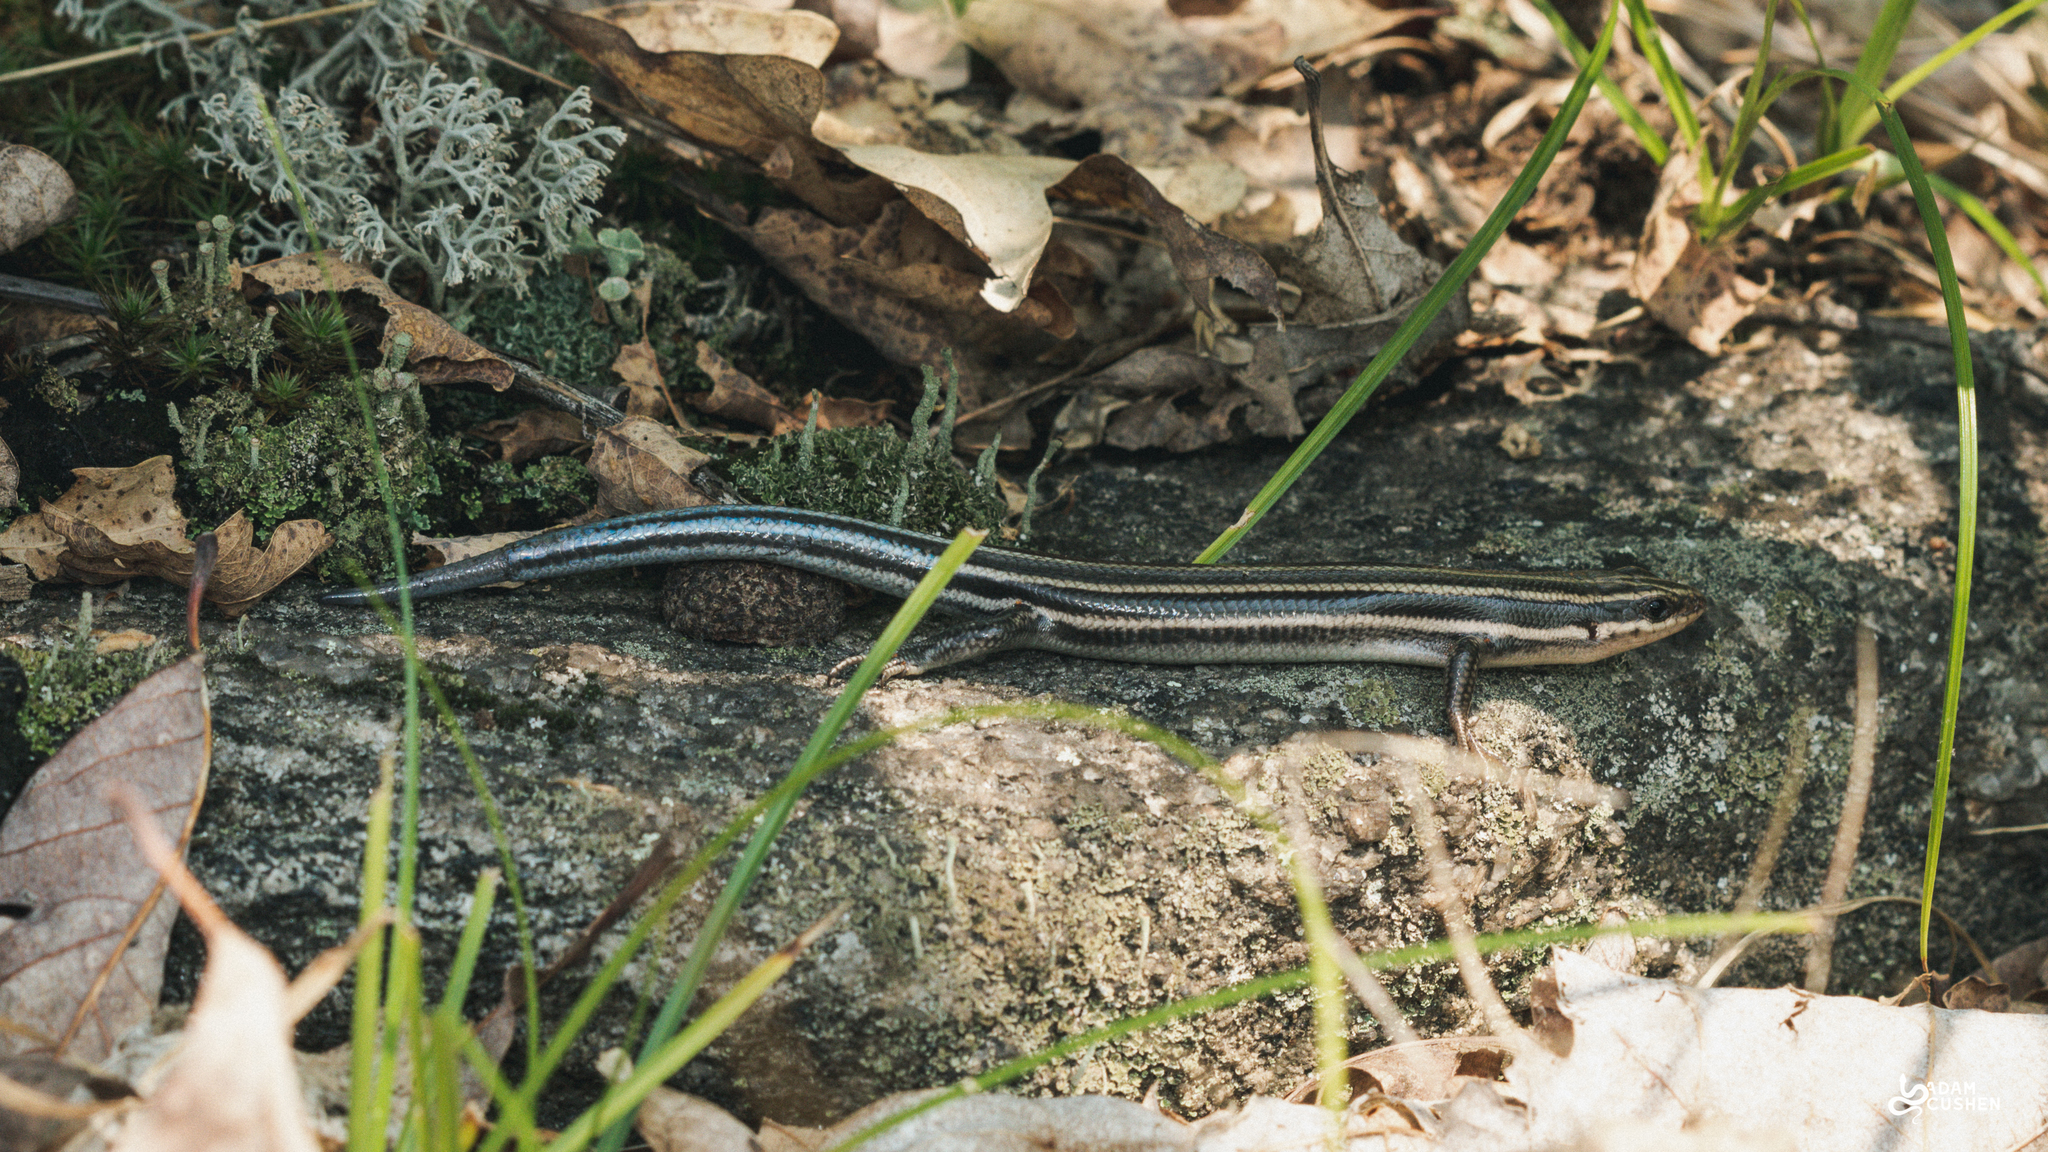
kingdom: Animalia
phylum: Chordata
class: Squamata
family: Scincidae
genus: Plestiodon
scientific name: Plestiodon fasciatus
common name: Five-lined skink
